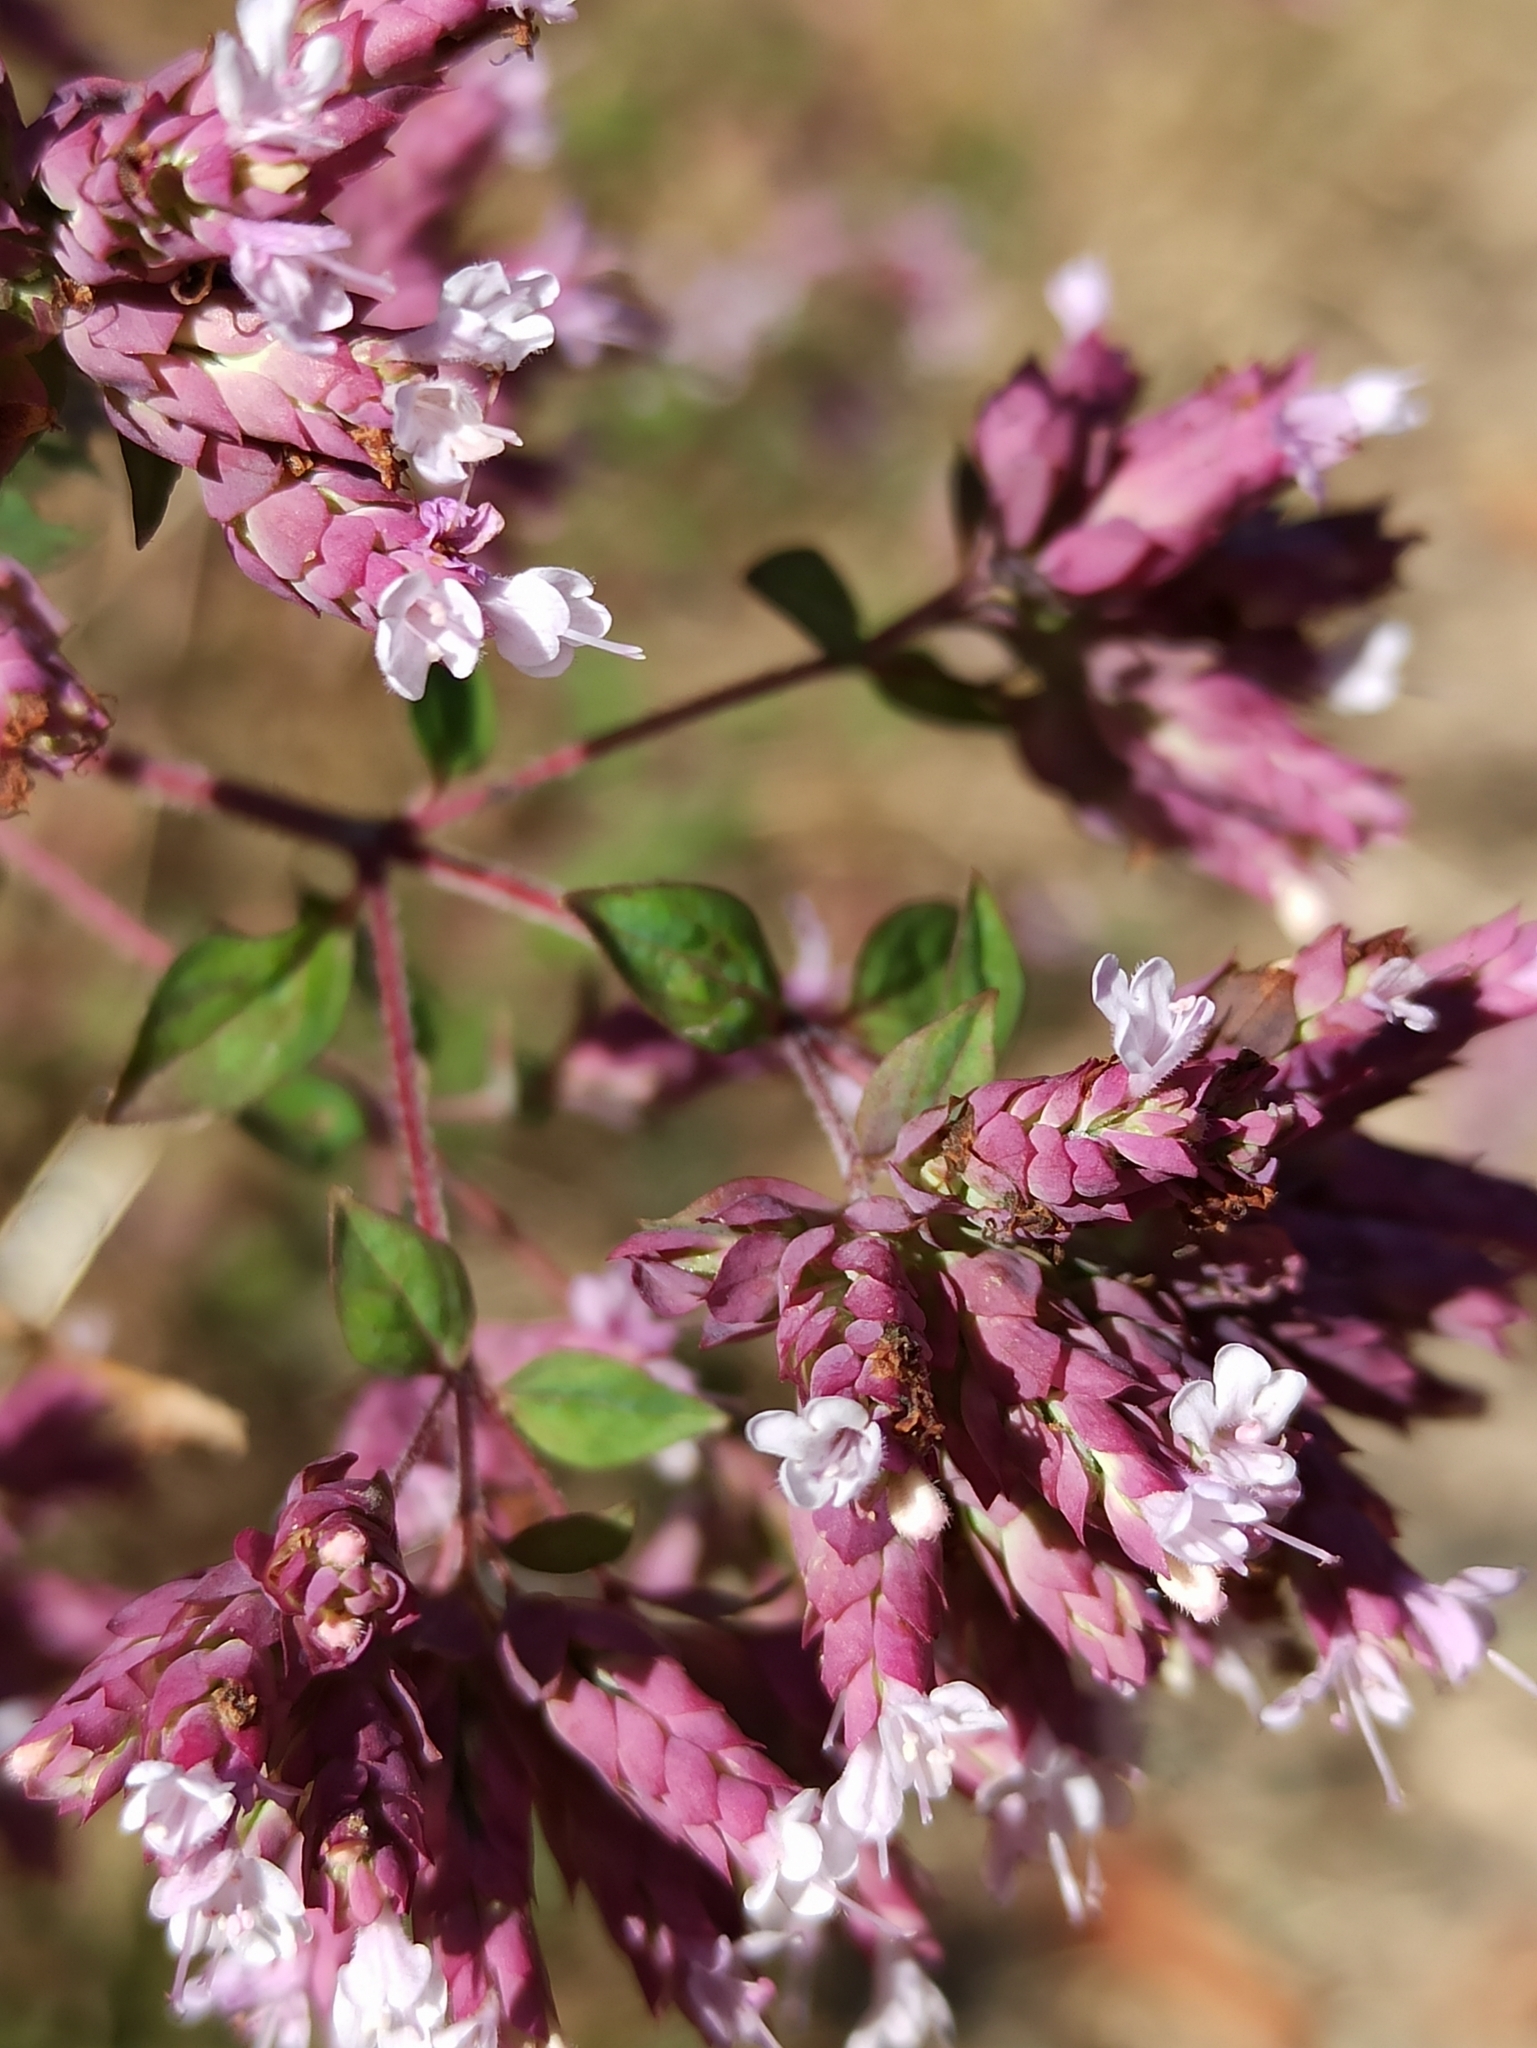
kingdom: Plantae
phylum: Tracheophyta
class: Magnoliopsida
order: Lamiales
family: Lamiaceae
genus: Origanum
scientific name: Origanum vulgare
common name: Wild marjoram
